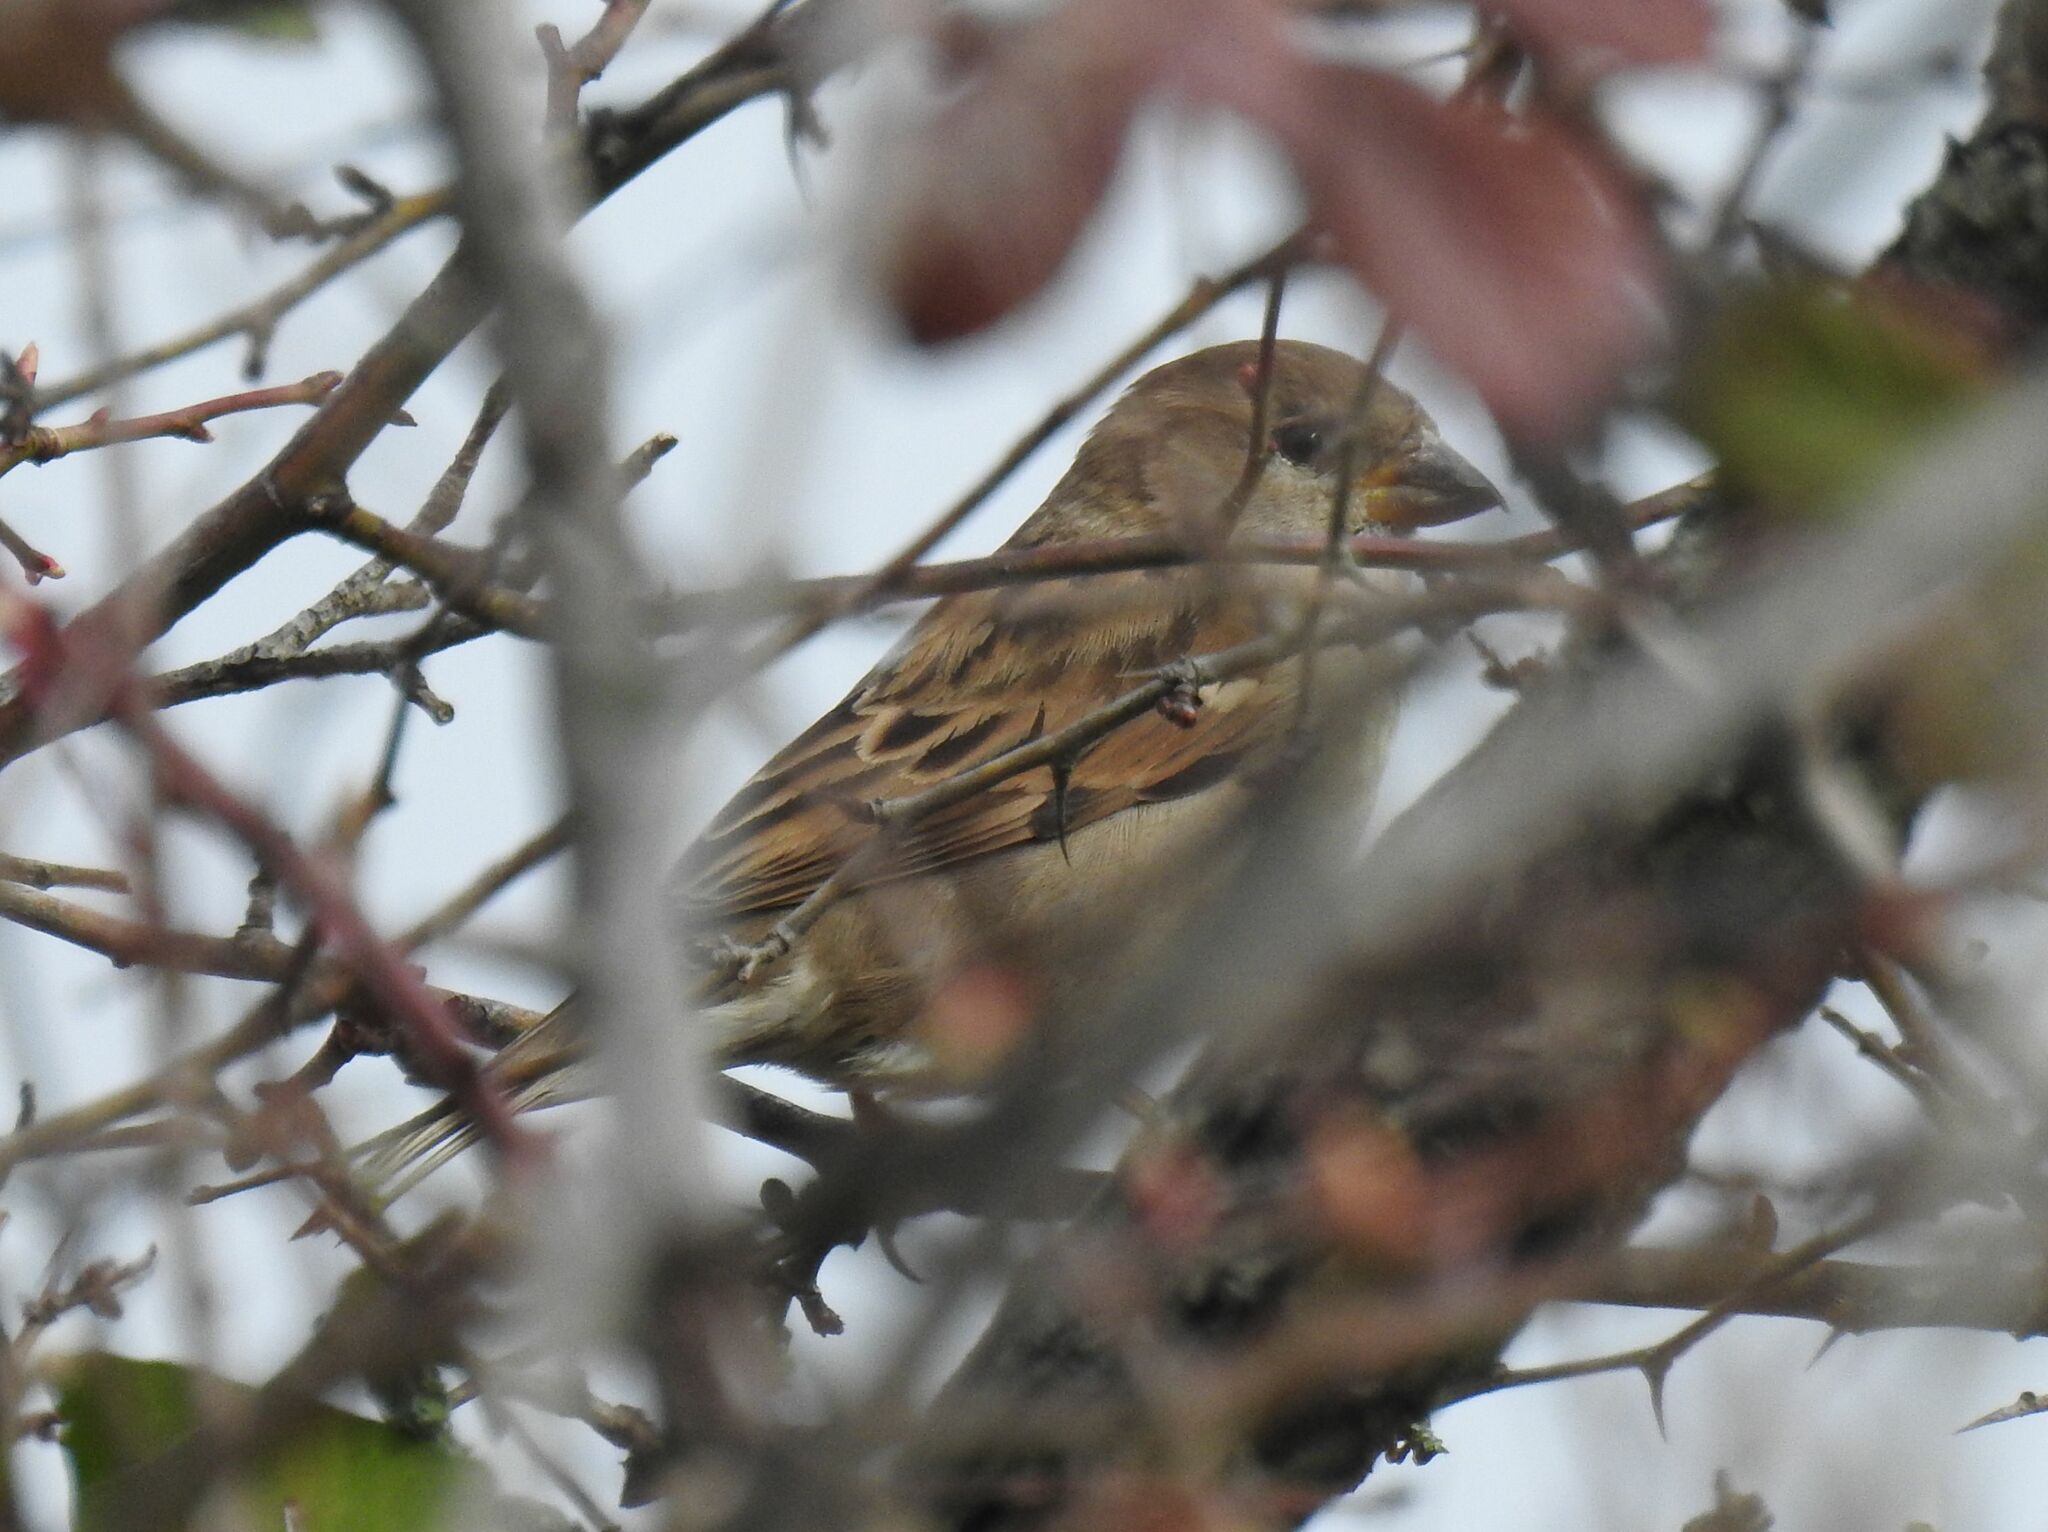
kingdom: Animalia
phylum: Chordata
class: Aves
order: Passeriformes
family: Passeridae
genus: Passer
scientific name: Passer domesticus
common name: House sparrow
